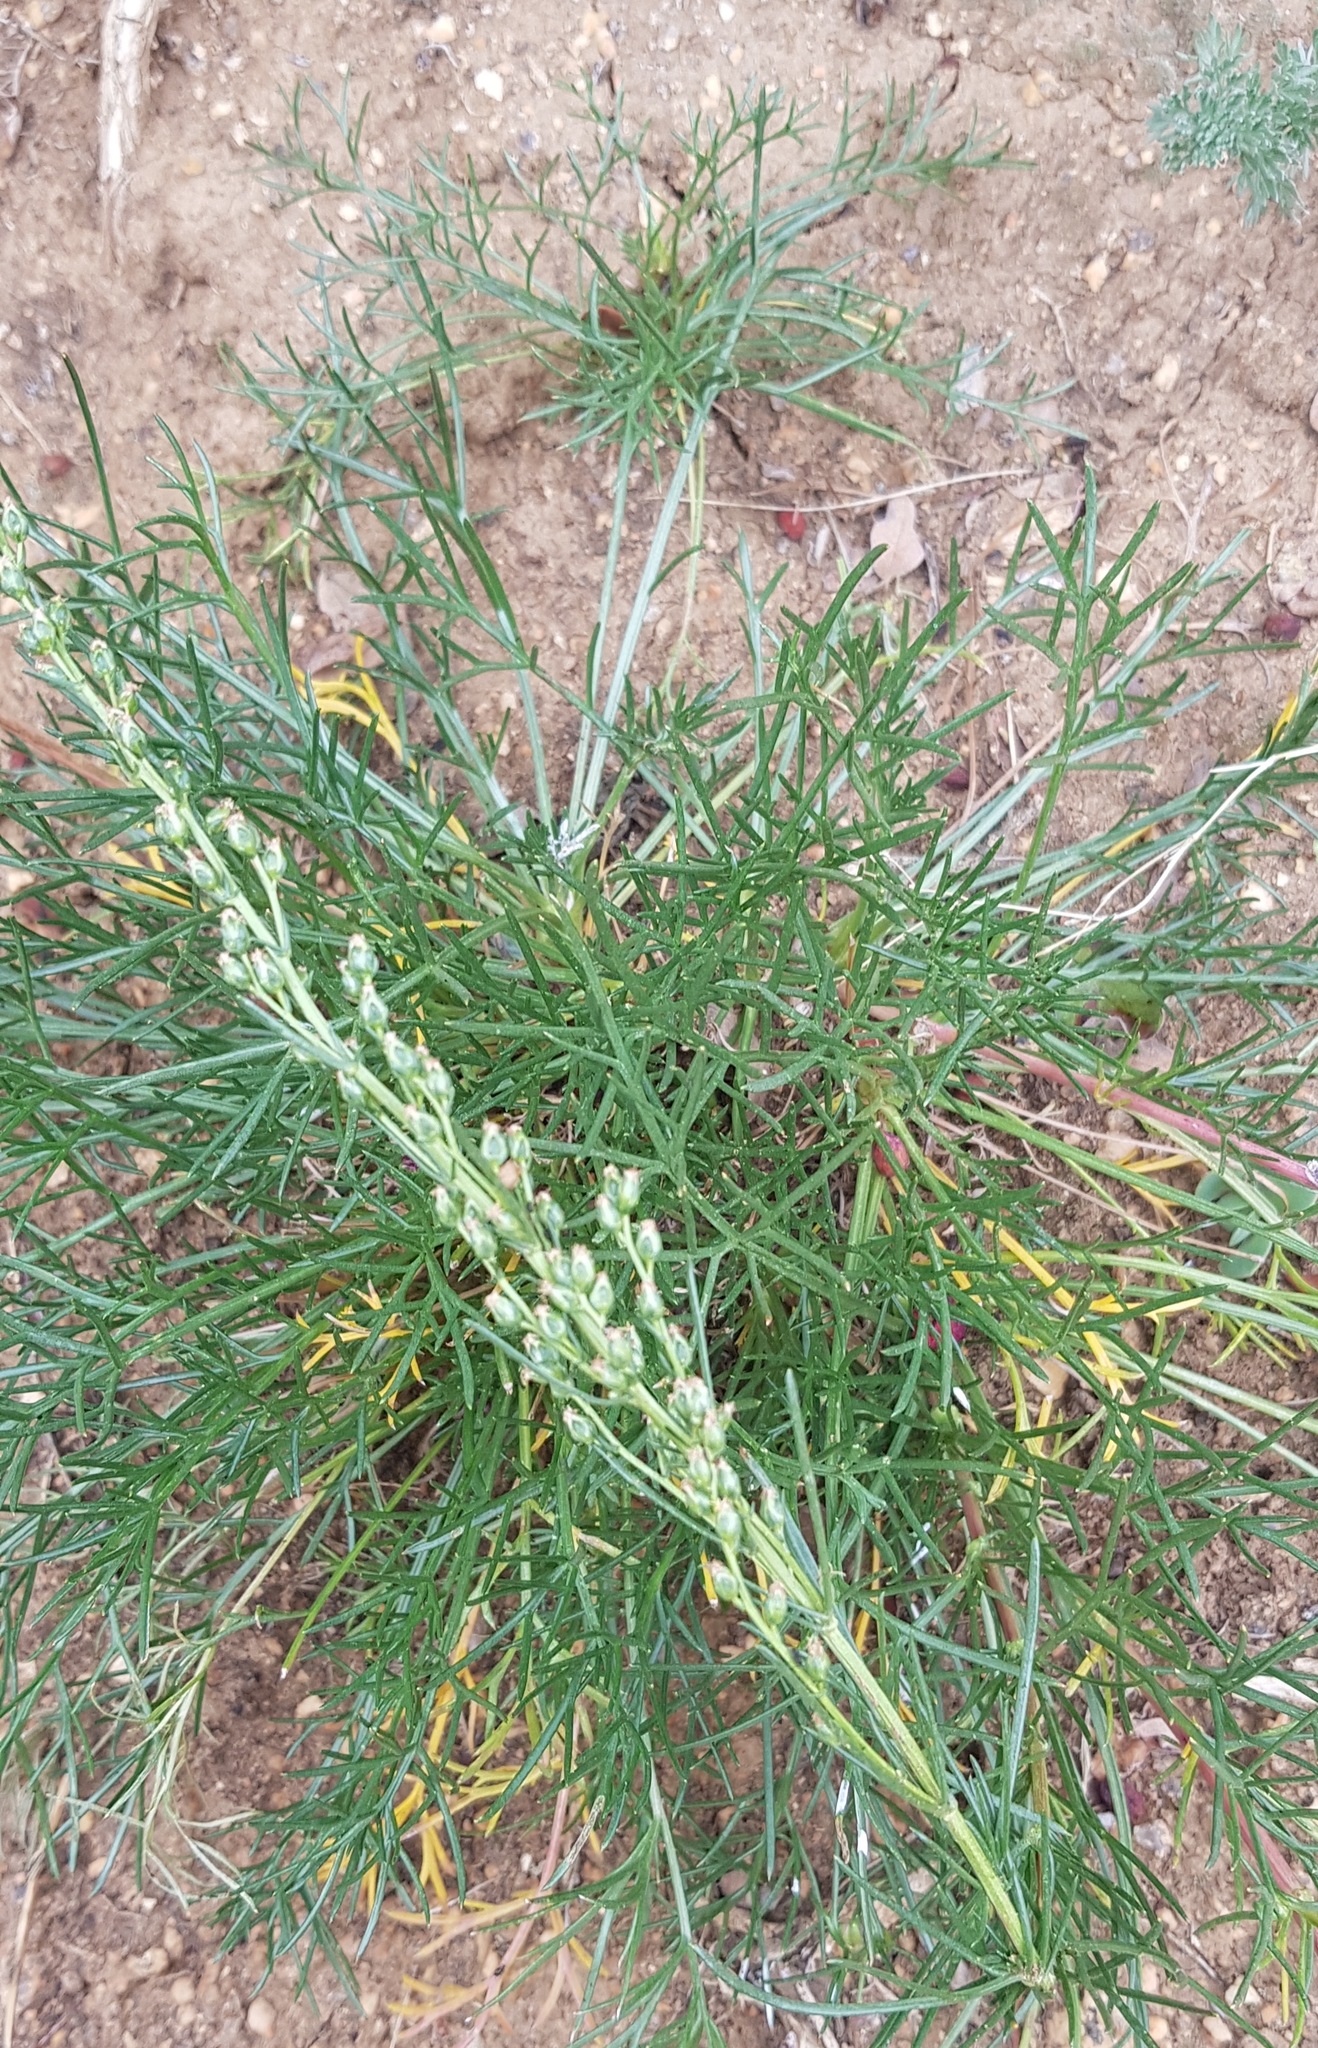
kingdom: Plantae
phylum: Tracheophyta
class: Magnoliopsida
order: Asterales
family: Asteraceae
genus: Artemisia
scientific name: Artemisia pubescens
